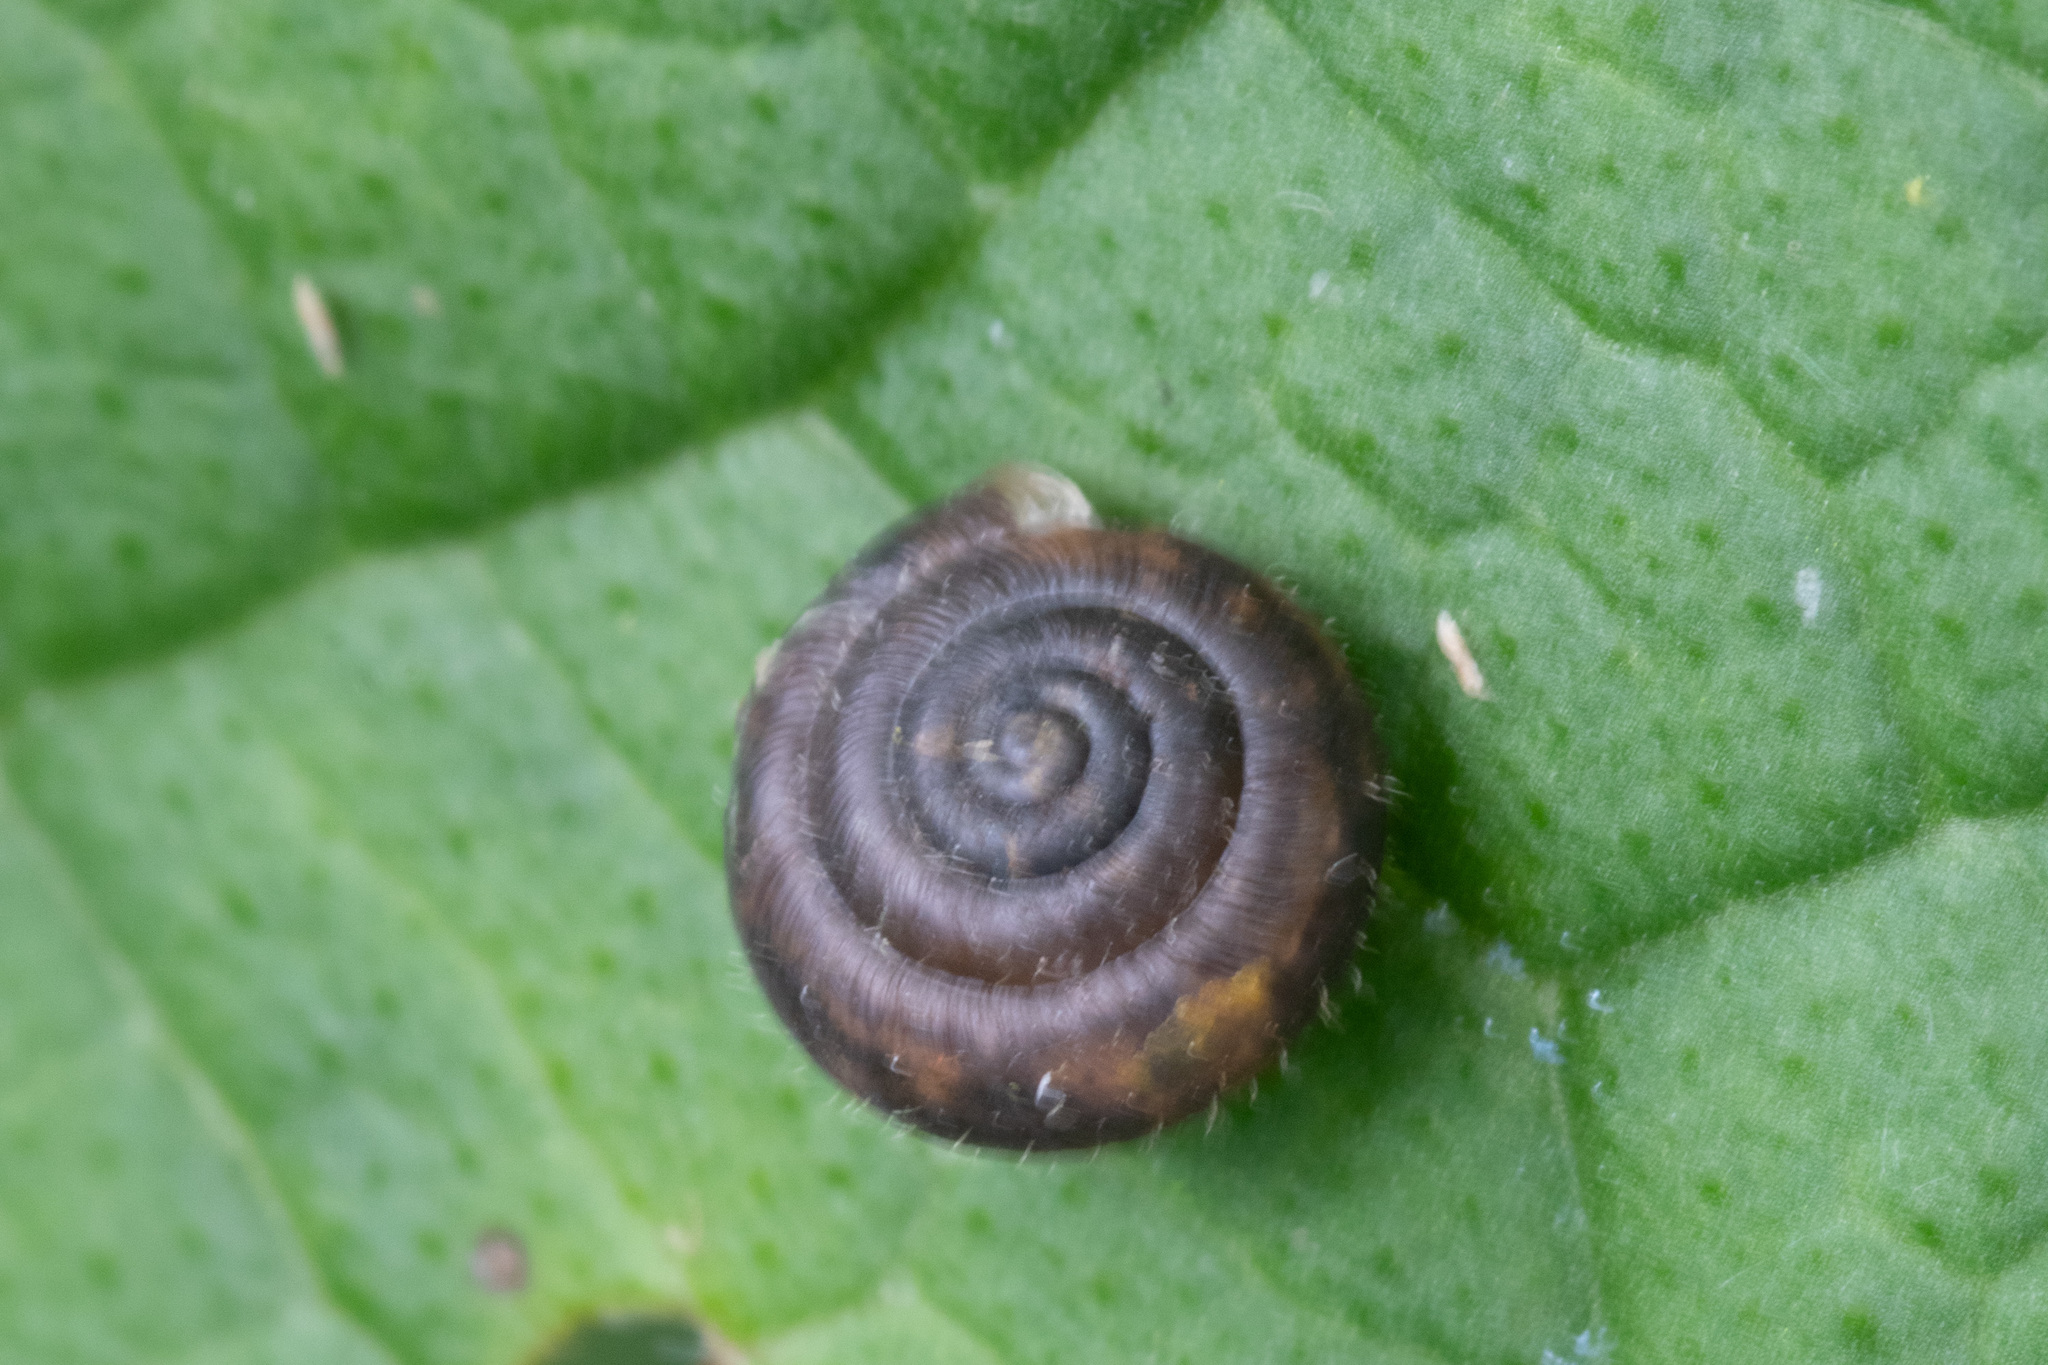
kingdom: Animalia
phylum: Mollusca
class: Gastropoda
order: Stylommatophora
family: Hygromiidae
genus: Trochulus
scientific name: Trochulus hispidus
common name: Hairy snail
